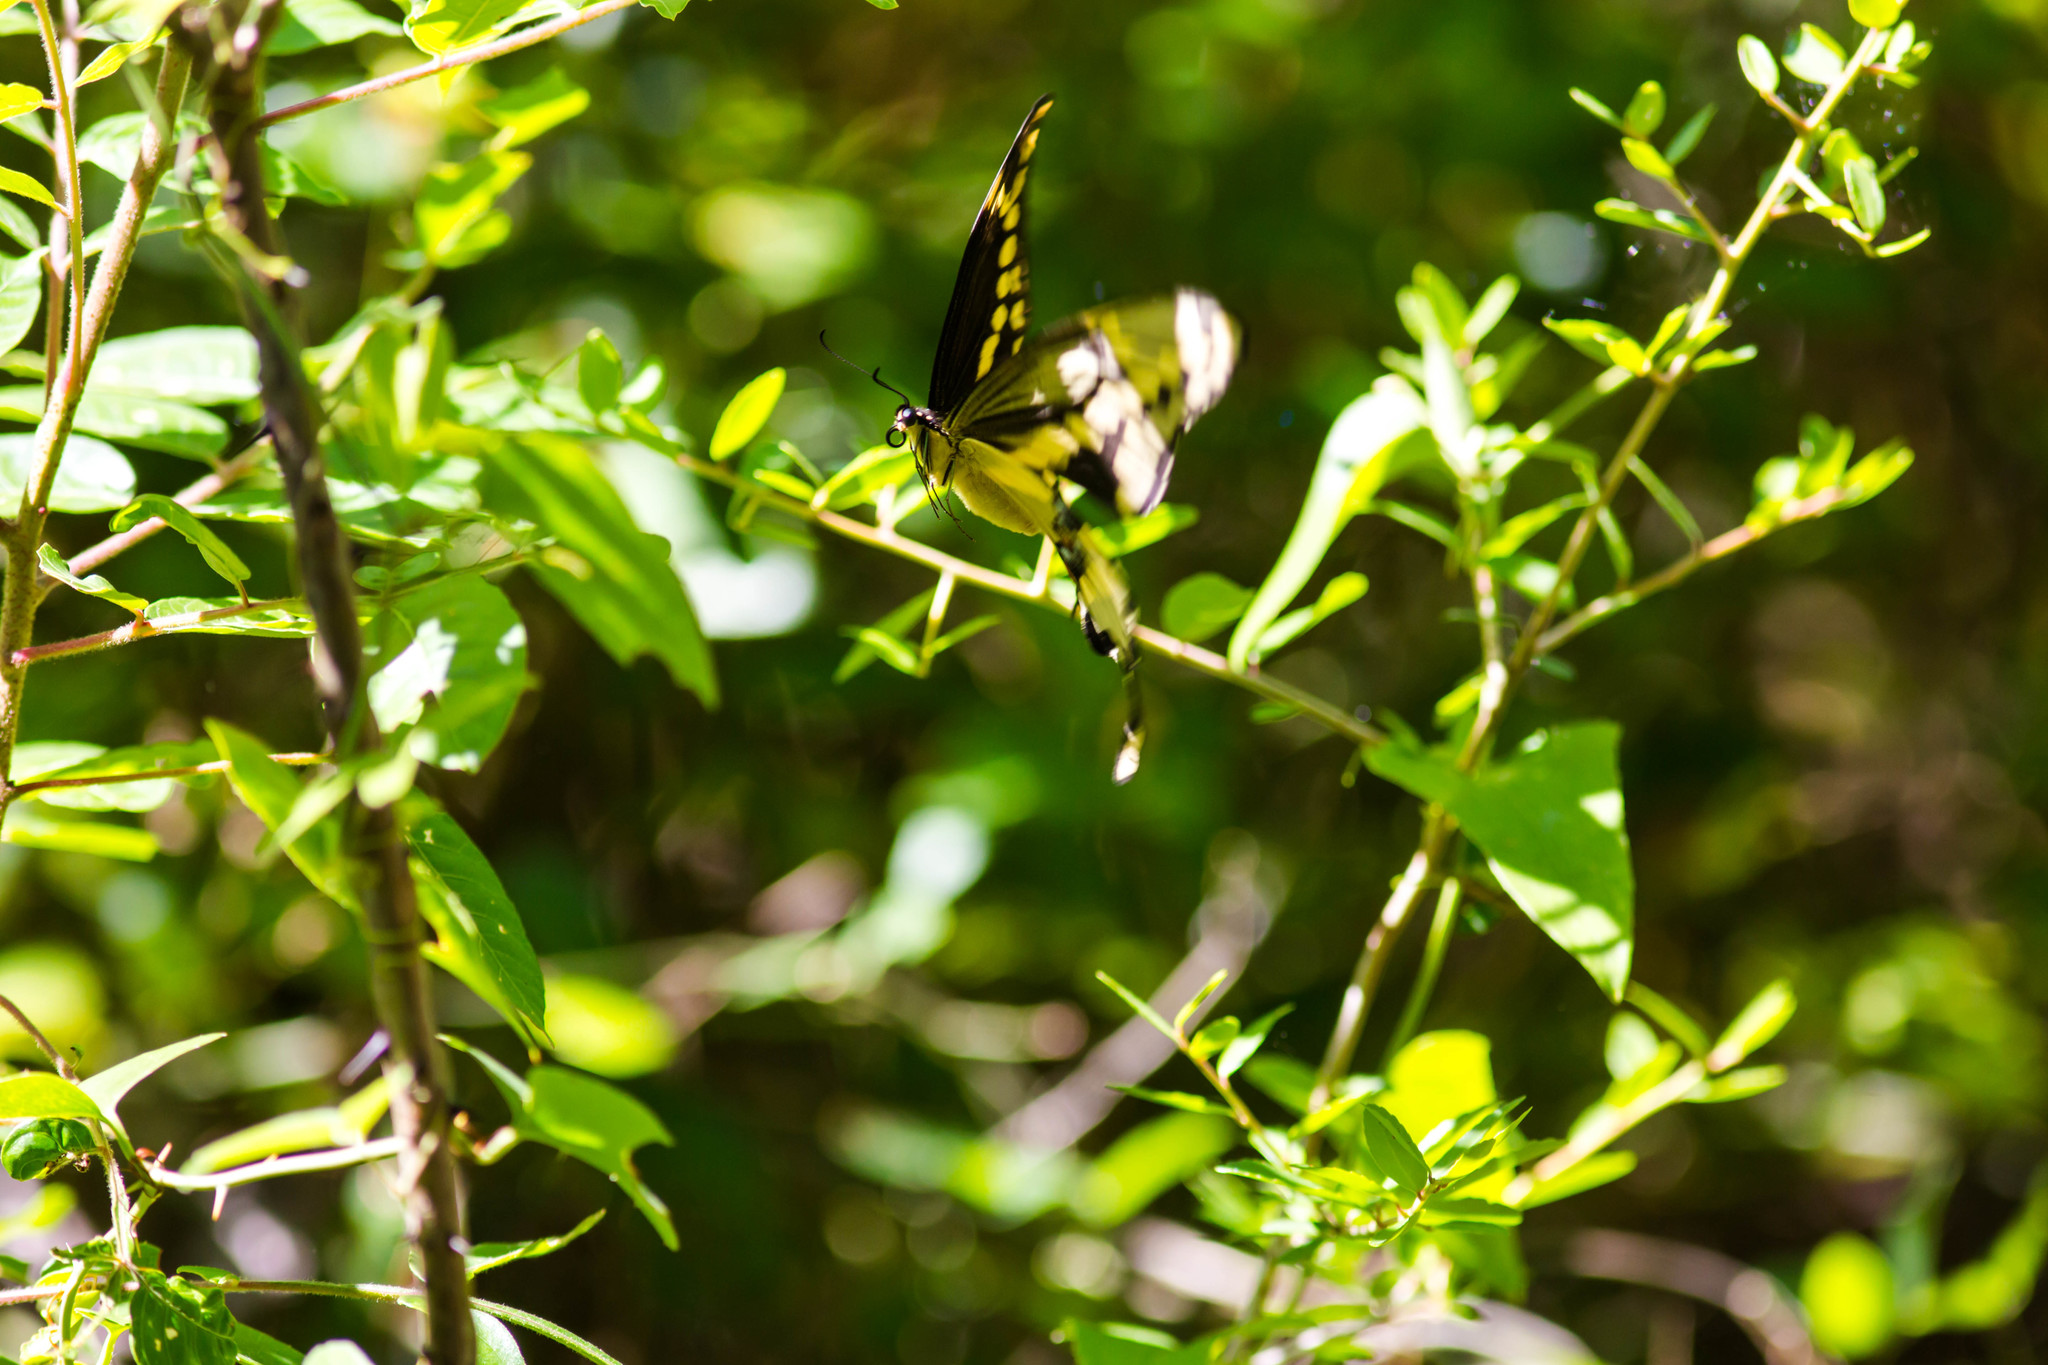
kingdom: Animalia
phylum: Arthropoda
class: Insecta
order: Lepidoptera
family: Papilionidae
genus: Papilio
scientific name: Papilio cresphontes
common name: Giant swallowtail
